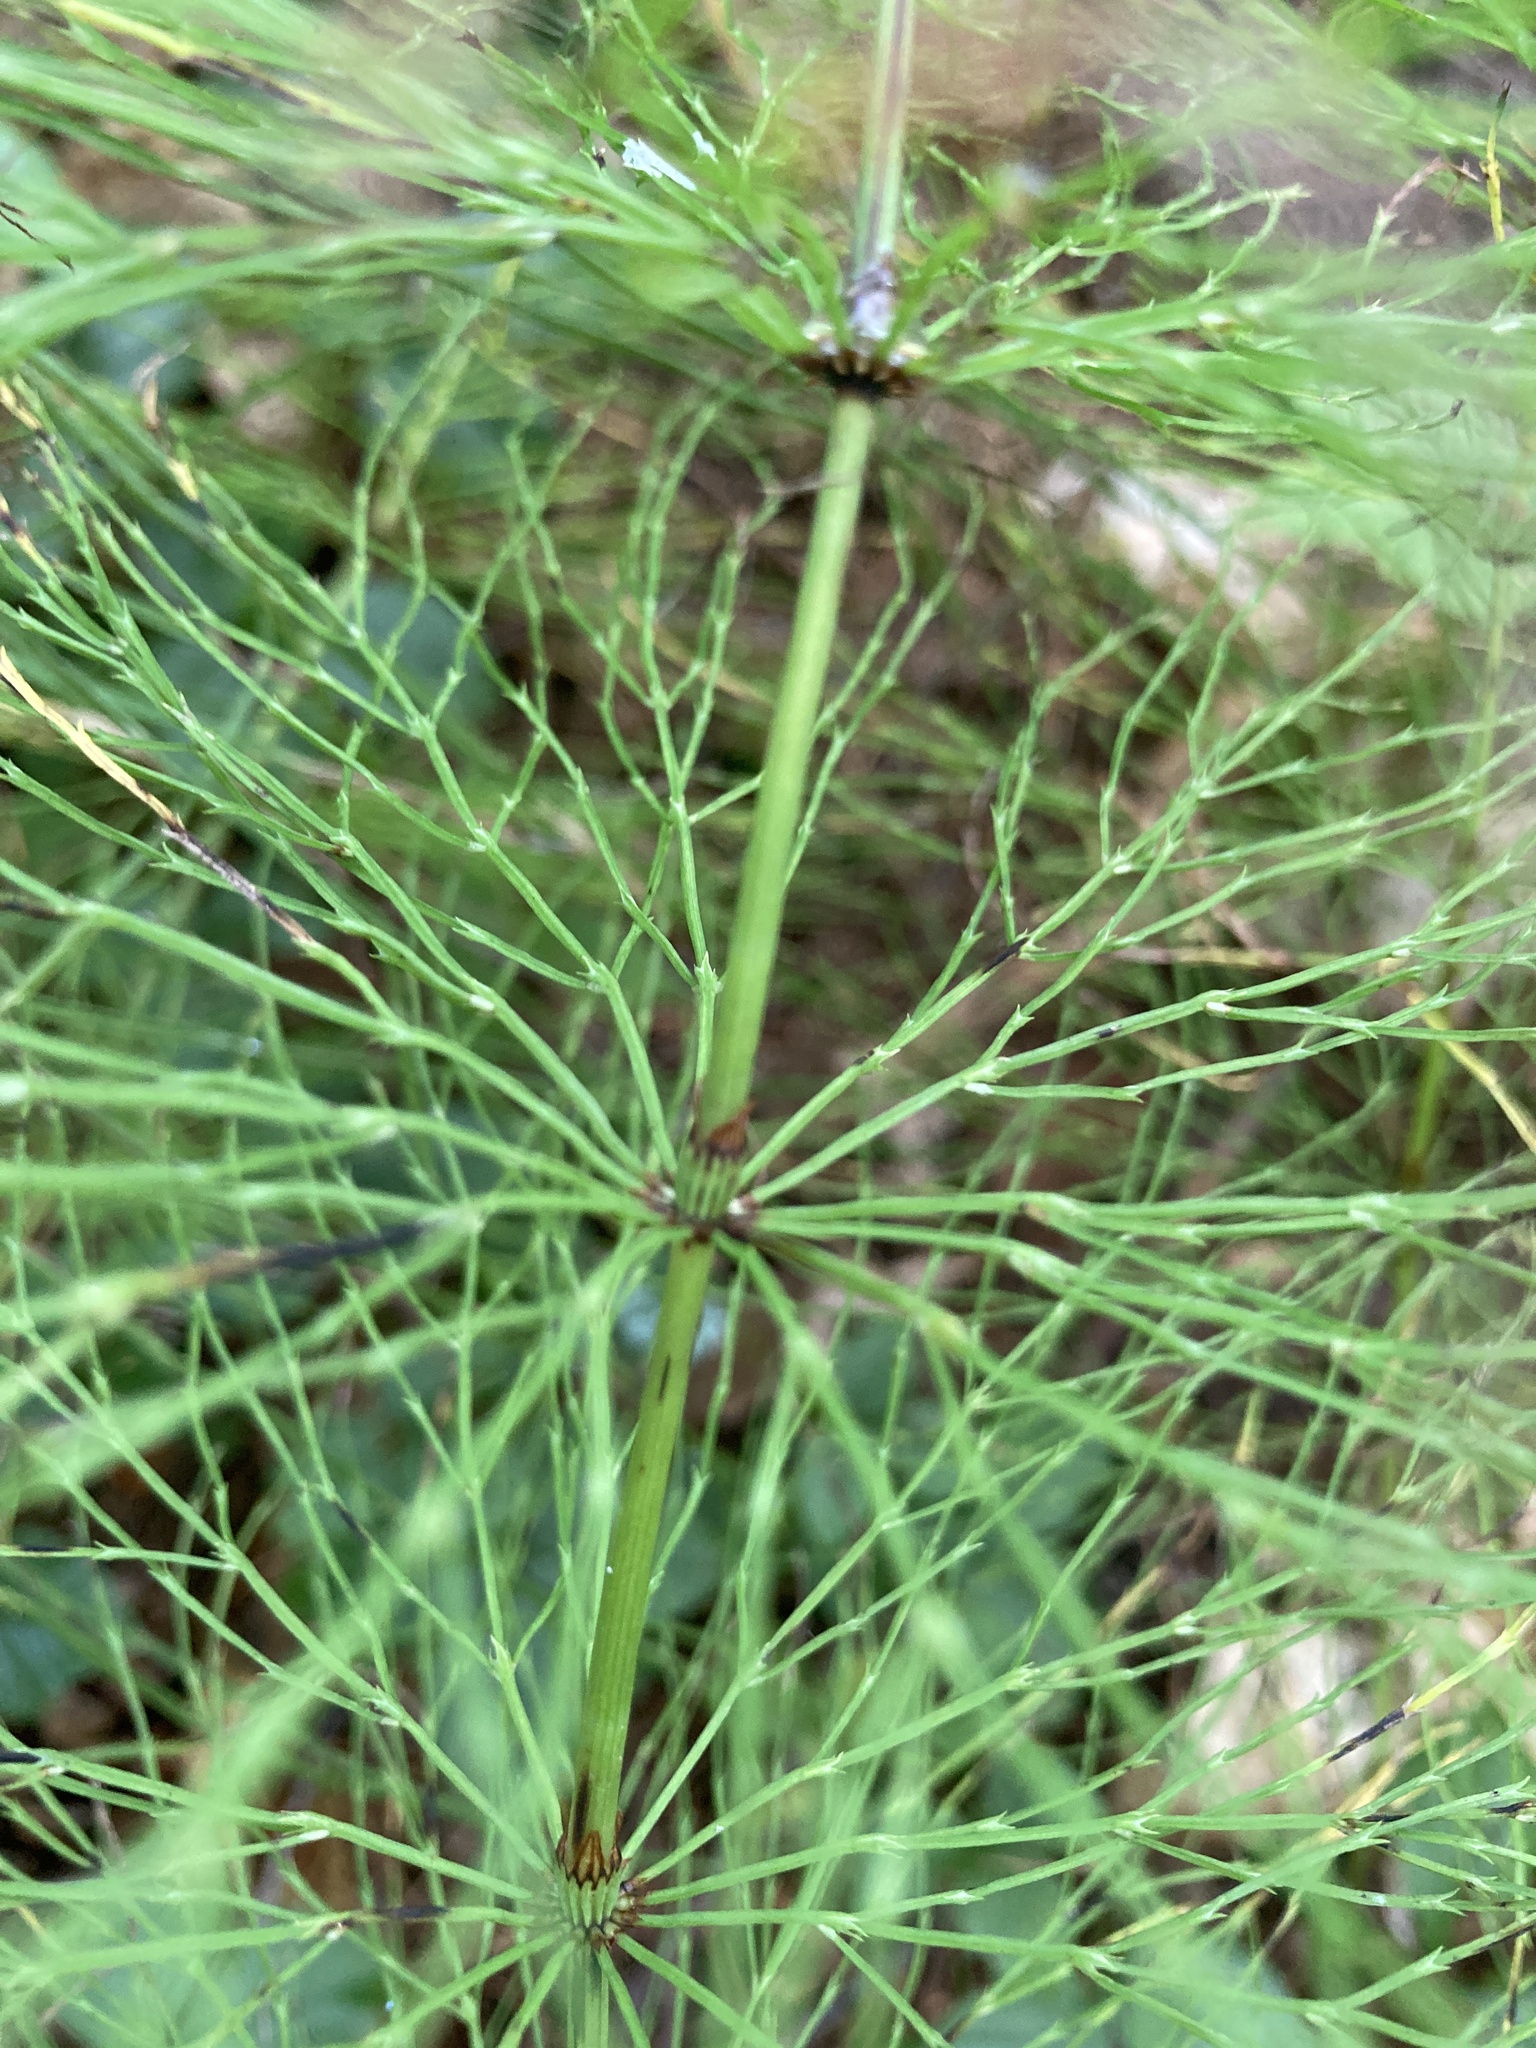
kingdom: Plantae
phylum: Tracheophyta
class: Polypodiopsida
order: Equisetales
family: Equisetaceae
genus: Equisetum
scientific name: Equisetum sylvaticum
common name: Wood horsetail
